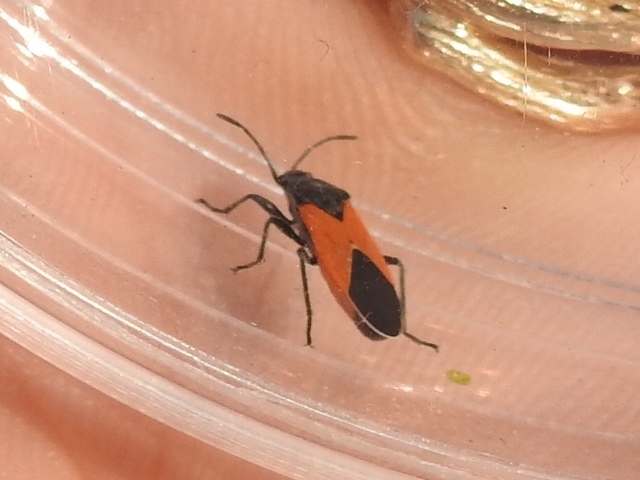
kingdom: Animalia
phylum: Arthropoda
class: Insecta
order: Hemiptera
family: Lygaeidae
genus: Melanopleurus
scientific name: Melanopleurus belfragei
